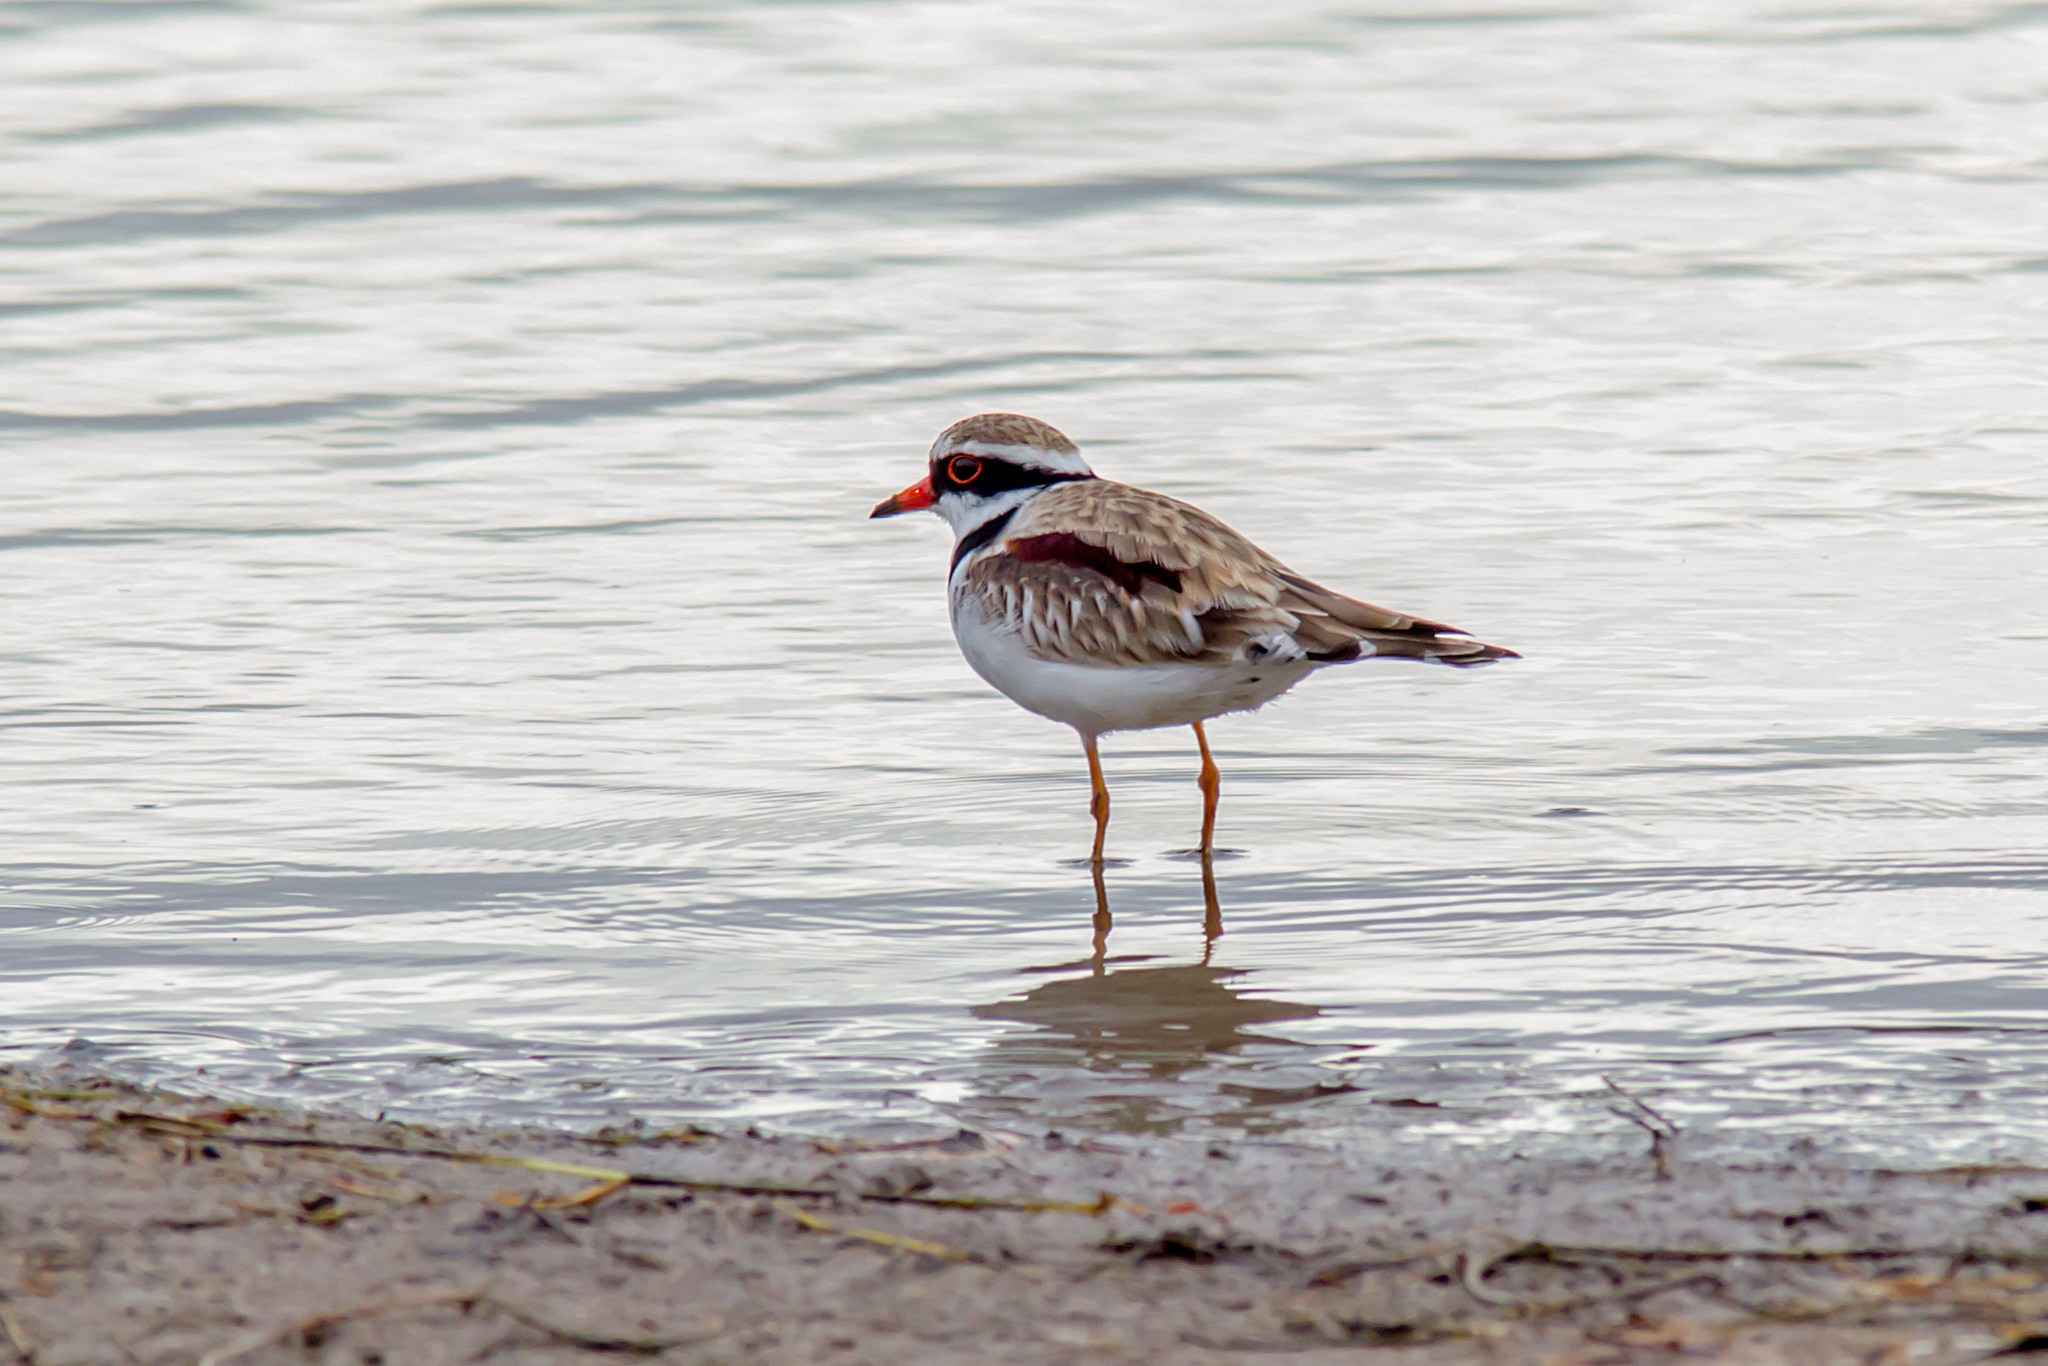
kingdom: Animalia
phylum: Chordata
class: Aves
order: Charadriiformes
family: Charadriidae
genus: Elseyornis
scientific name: Elseyornis melanops
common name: Black-fronted dotterel
